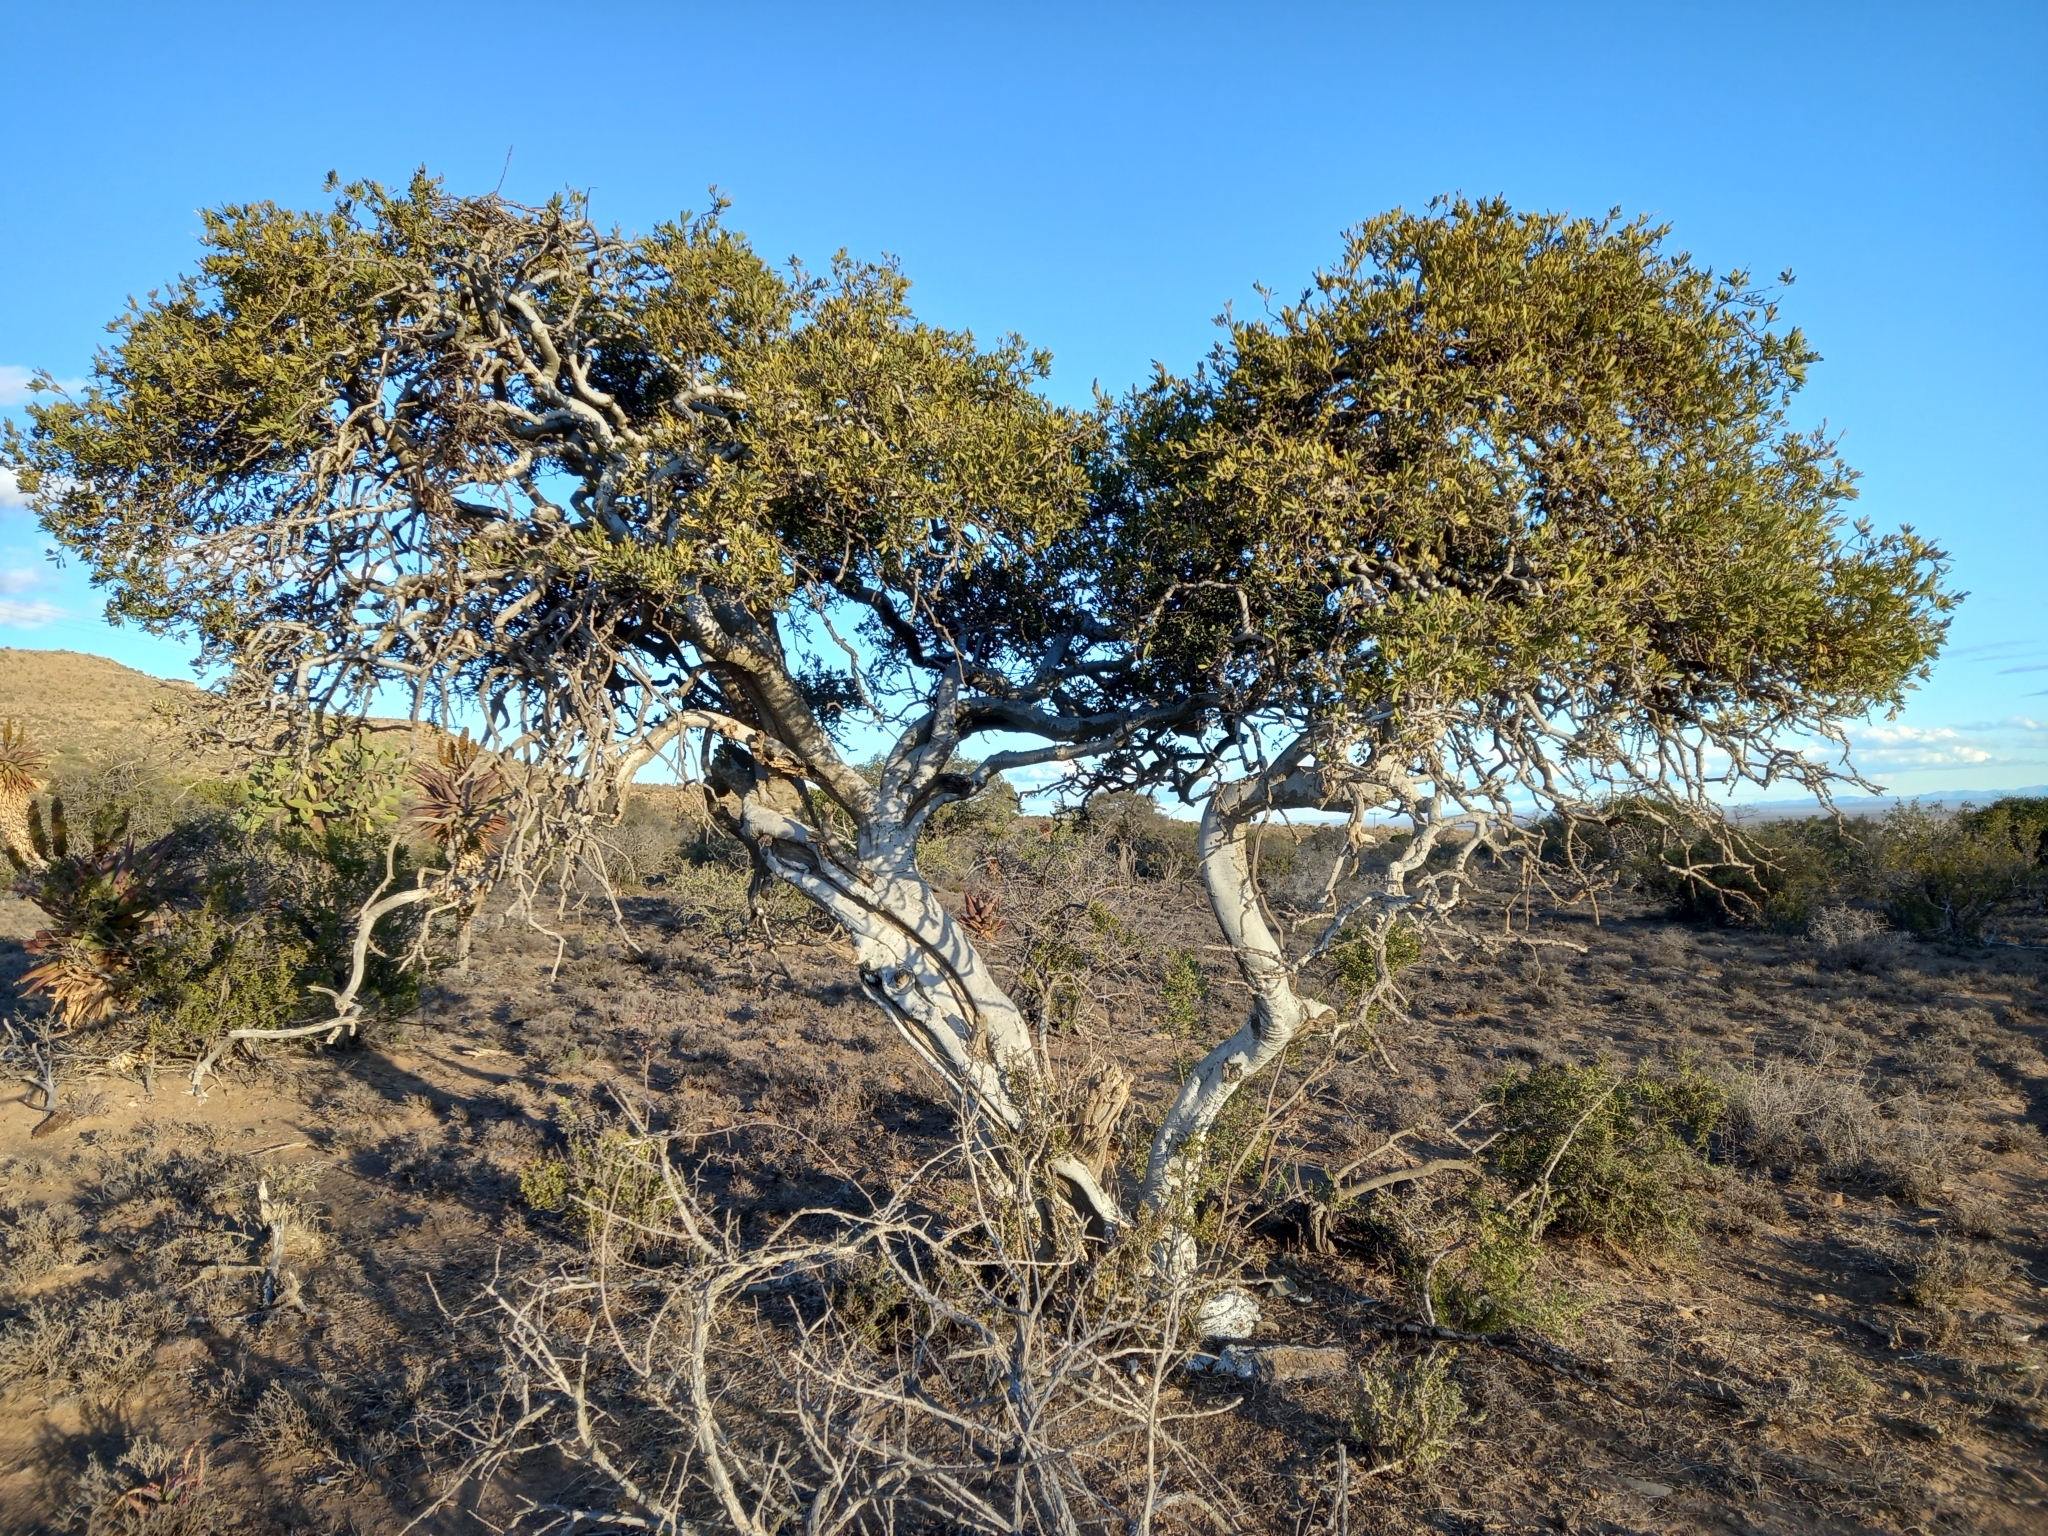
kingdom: Plantae
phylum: Tracheophyta
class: Magnoliopsida
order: Brassicales
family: Capparaceae
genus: Boscia
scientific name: Boscia oleoides
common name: Karoo shepherd tree
